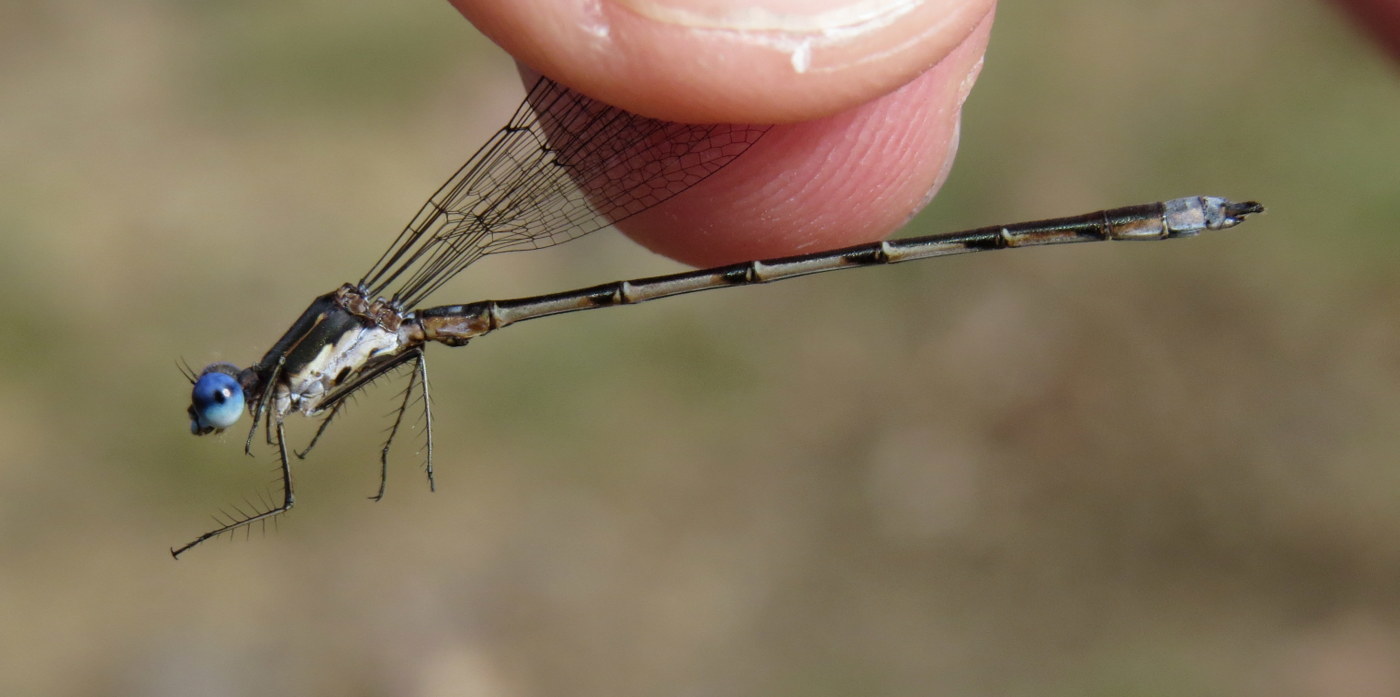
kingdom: Animalia
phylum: Arthropoda
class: Insecta
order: Odonata
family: Lestidae
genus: Lestes
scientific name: Lestes congener
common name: Spotted spreadwing
